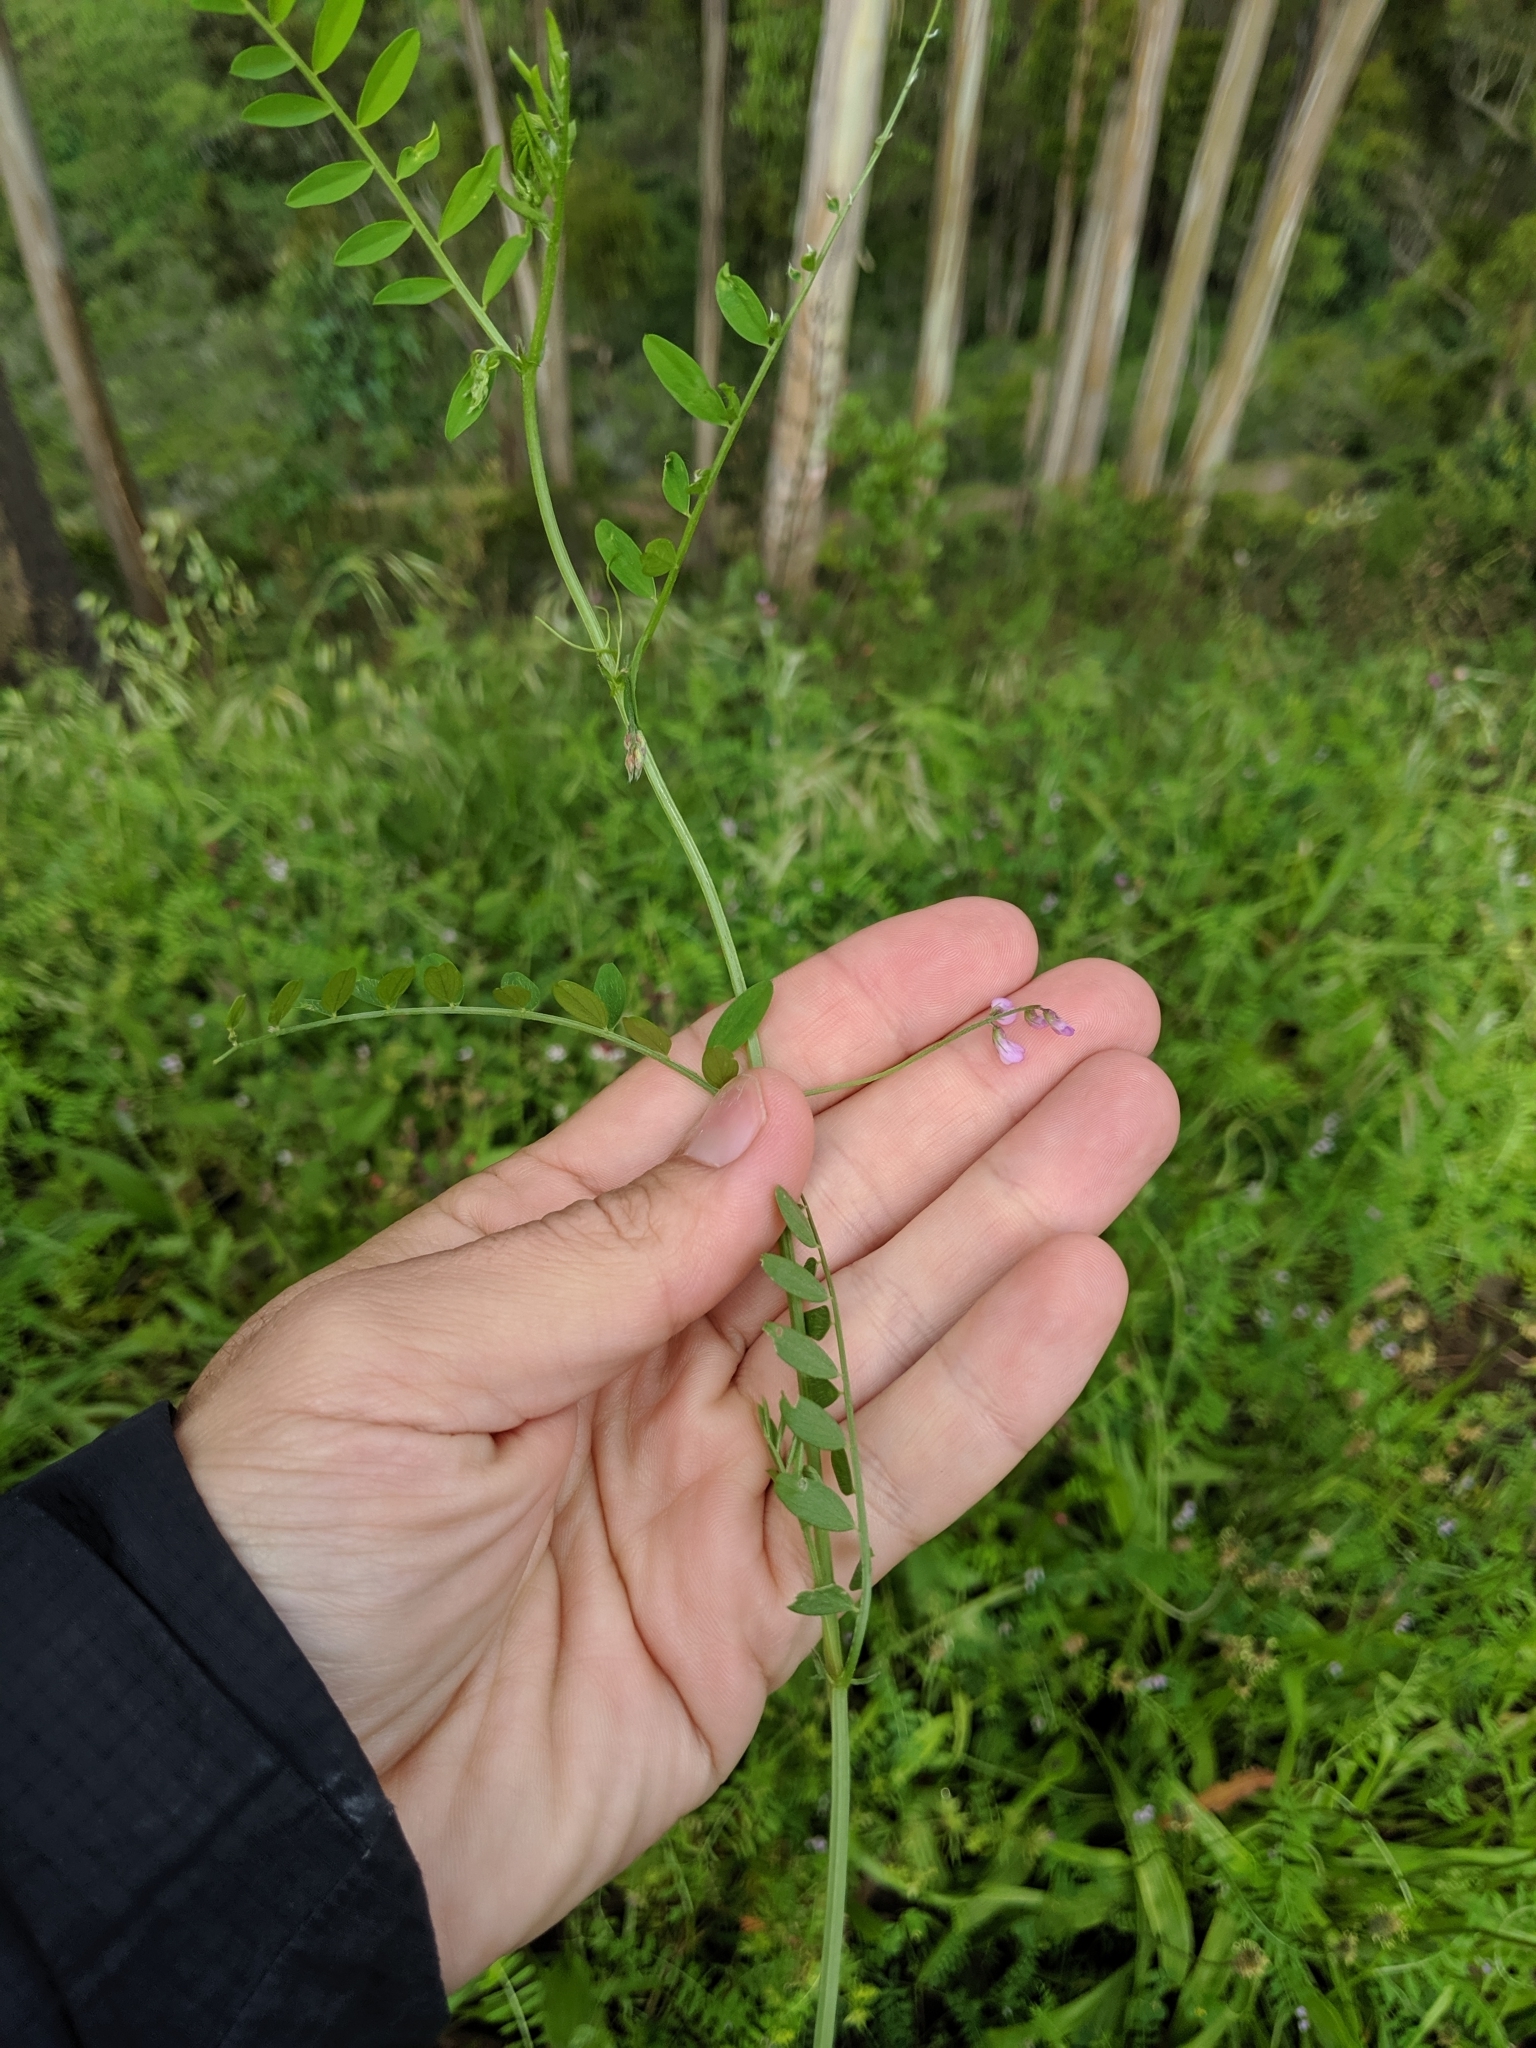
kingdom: Plantae
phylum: Tracheophyta
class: Magnoliopsida
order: Fabales
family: Fabaceae
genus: Vicia
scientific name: Vicia disperma
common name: European vetch
